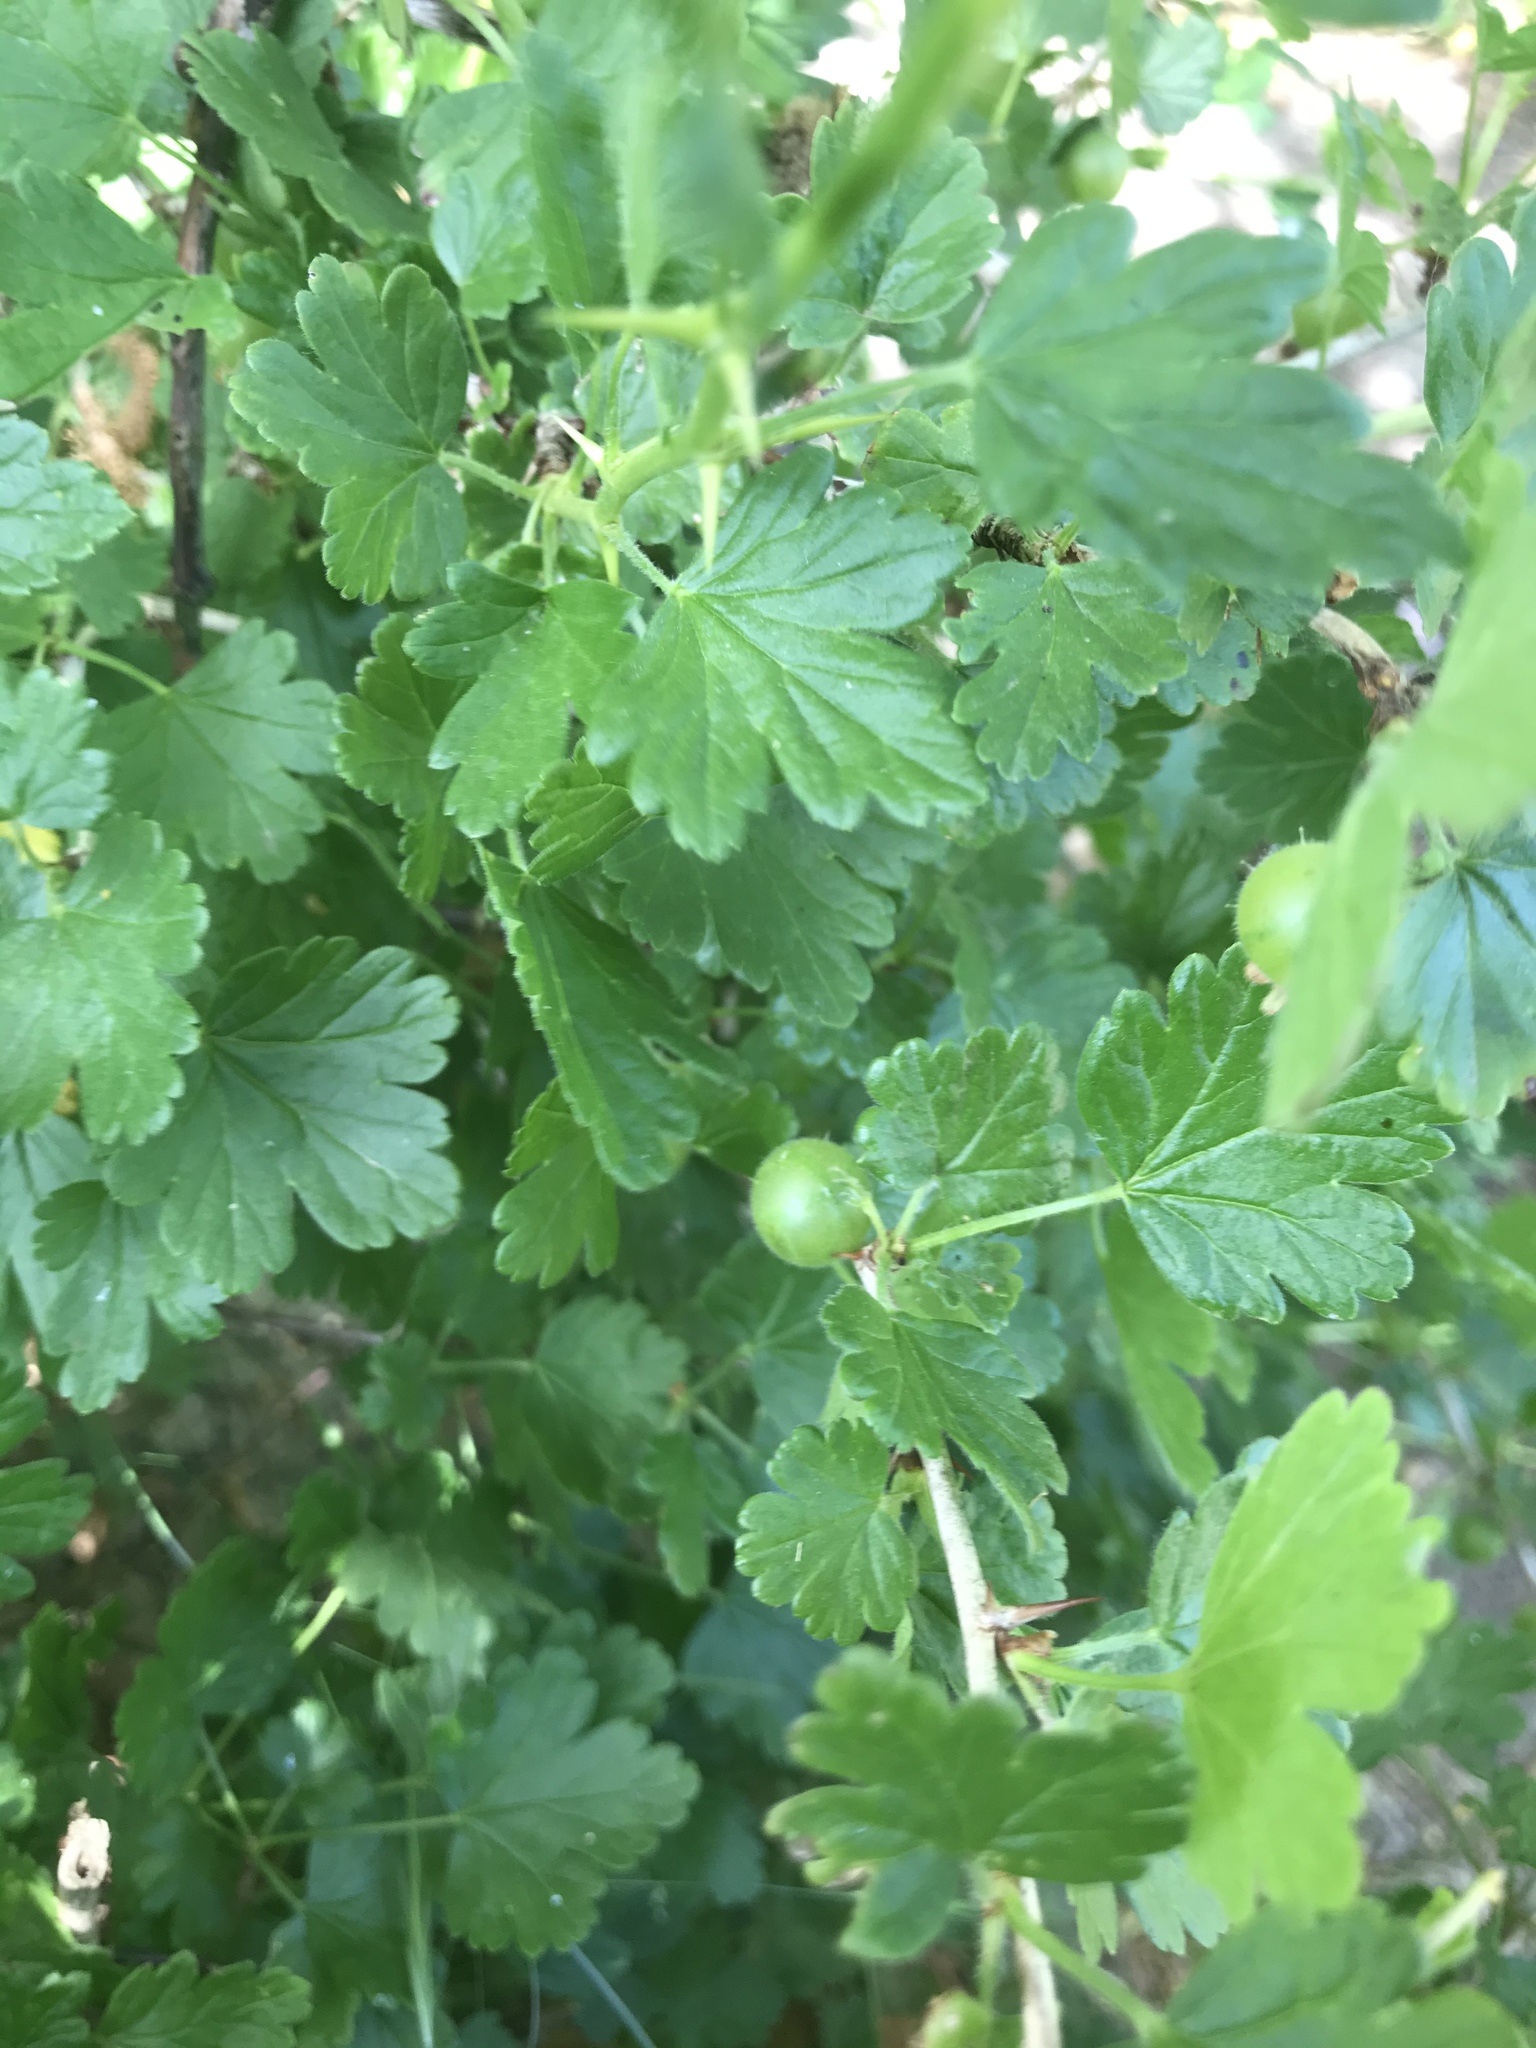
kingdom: Plantae
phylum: Tracheophyta
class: Magnoliopsida
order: Saxifragales
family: Grossulariaceae
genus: Ribes
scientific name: Ribes uva-crispa
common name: Gooseberry
